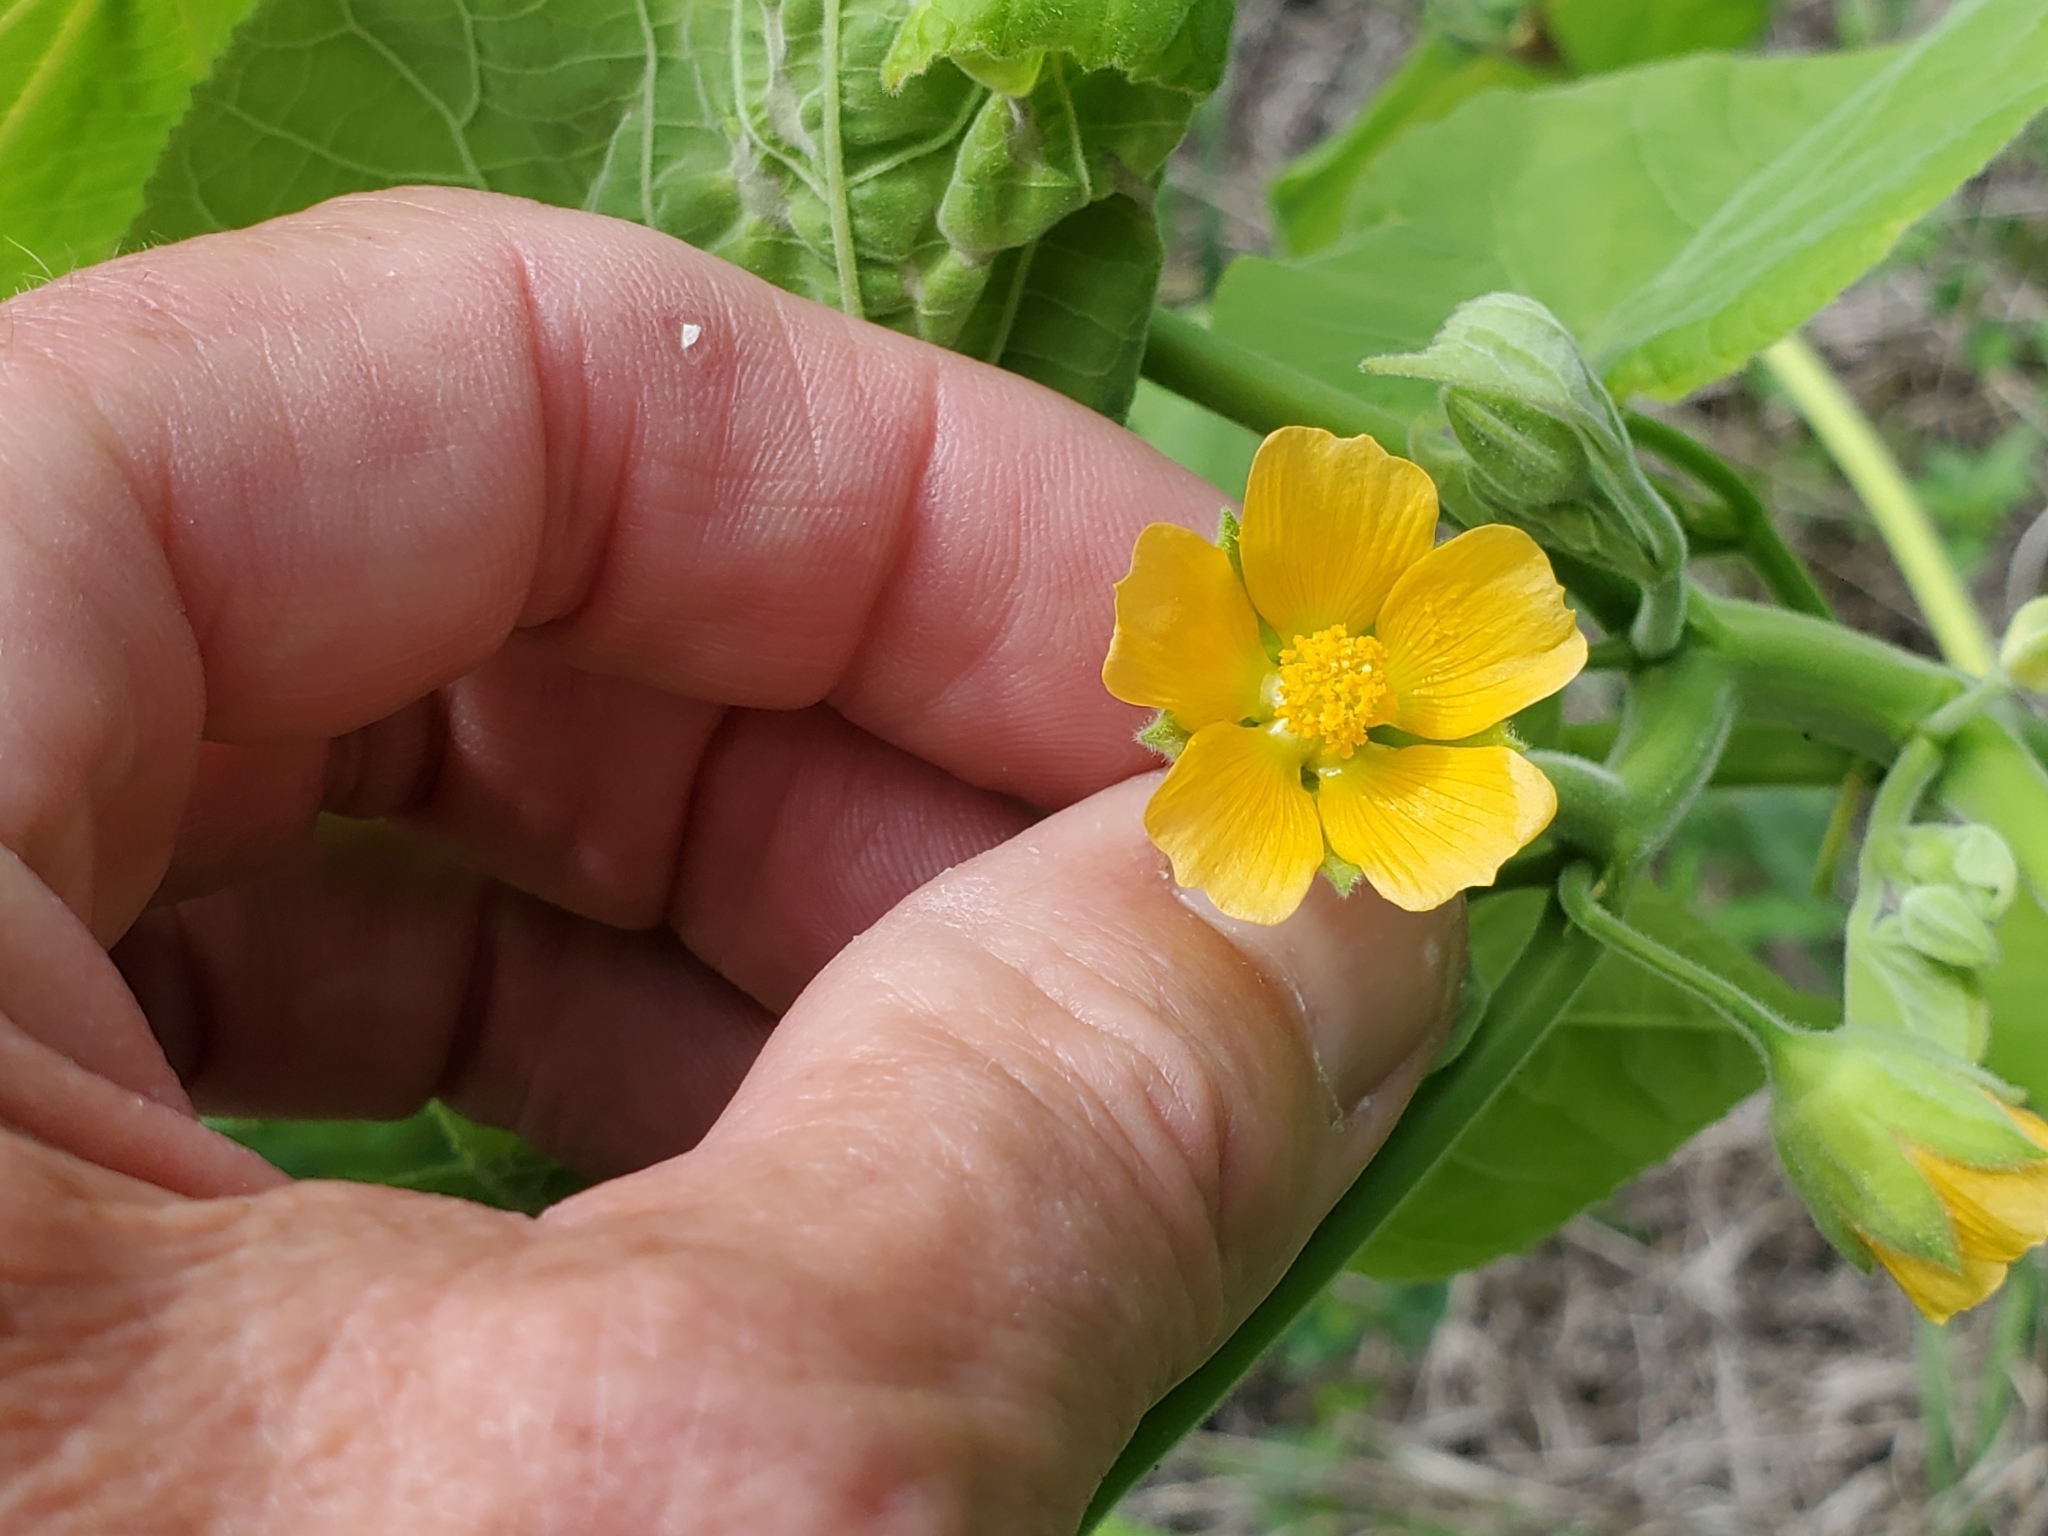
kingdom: Plantae
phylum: Tracheophyta
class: Magnoliopsida
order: Malvales
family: Malvaceae
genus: Abutilon
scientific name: Abutilon theophrasti
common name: Velvetleaf
